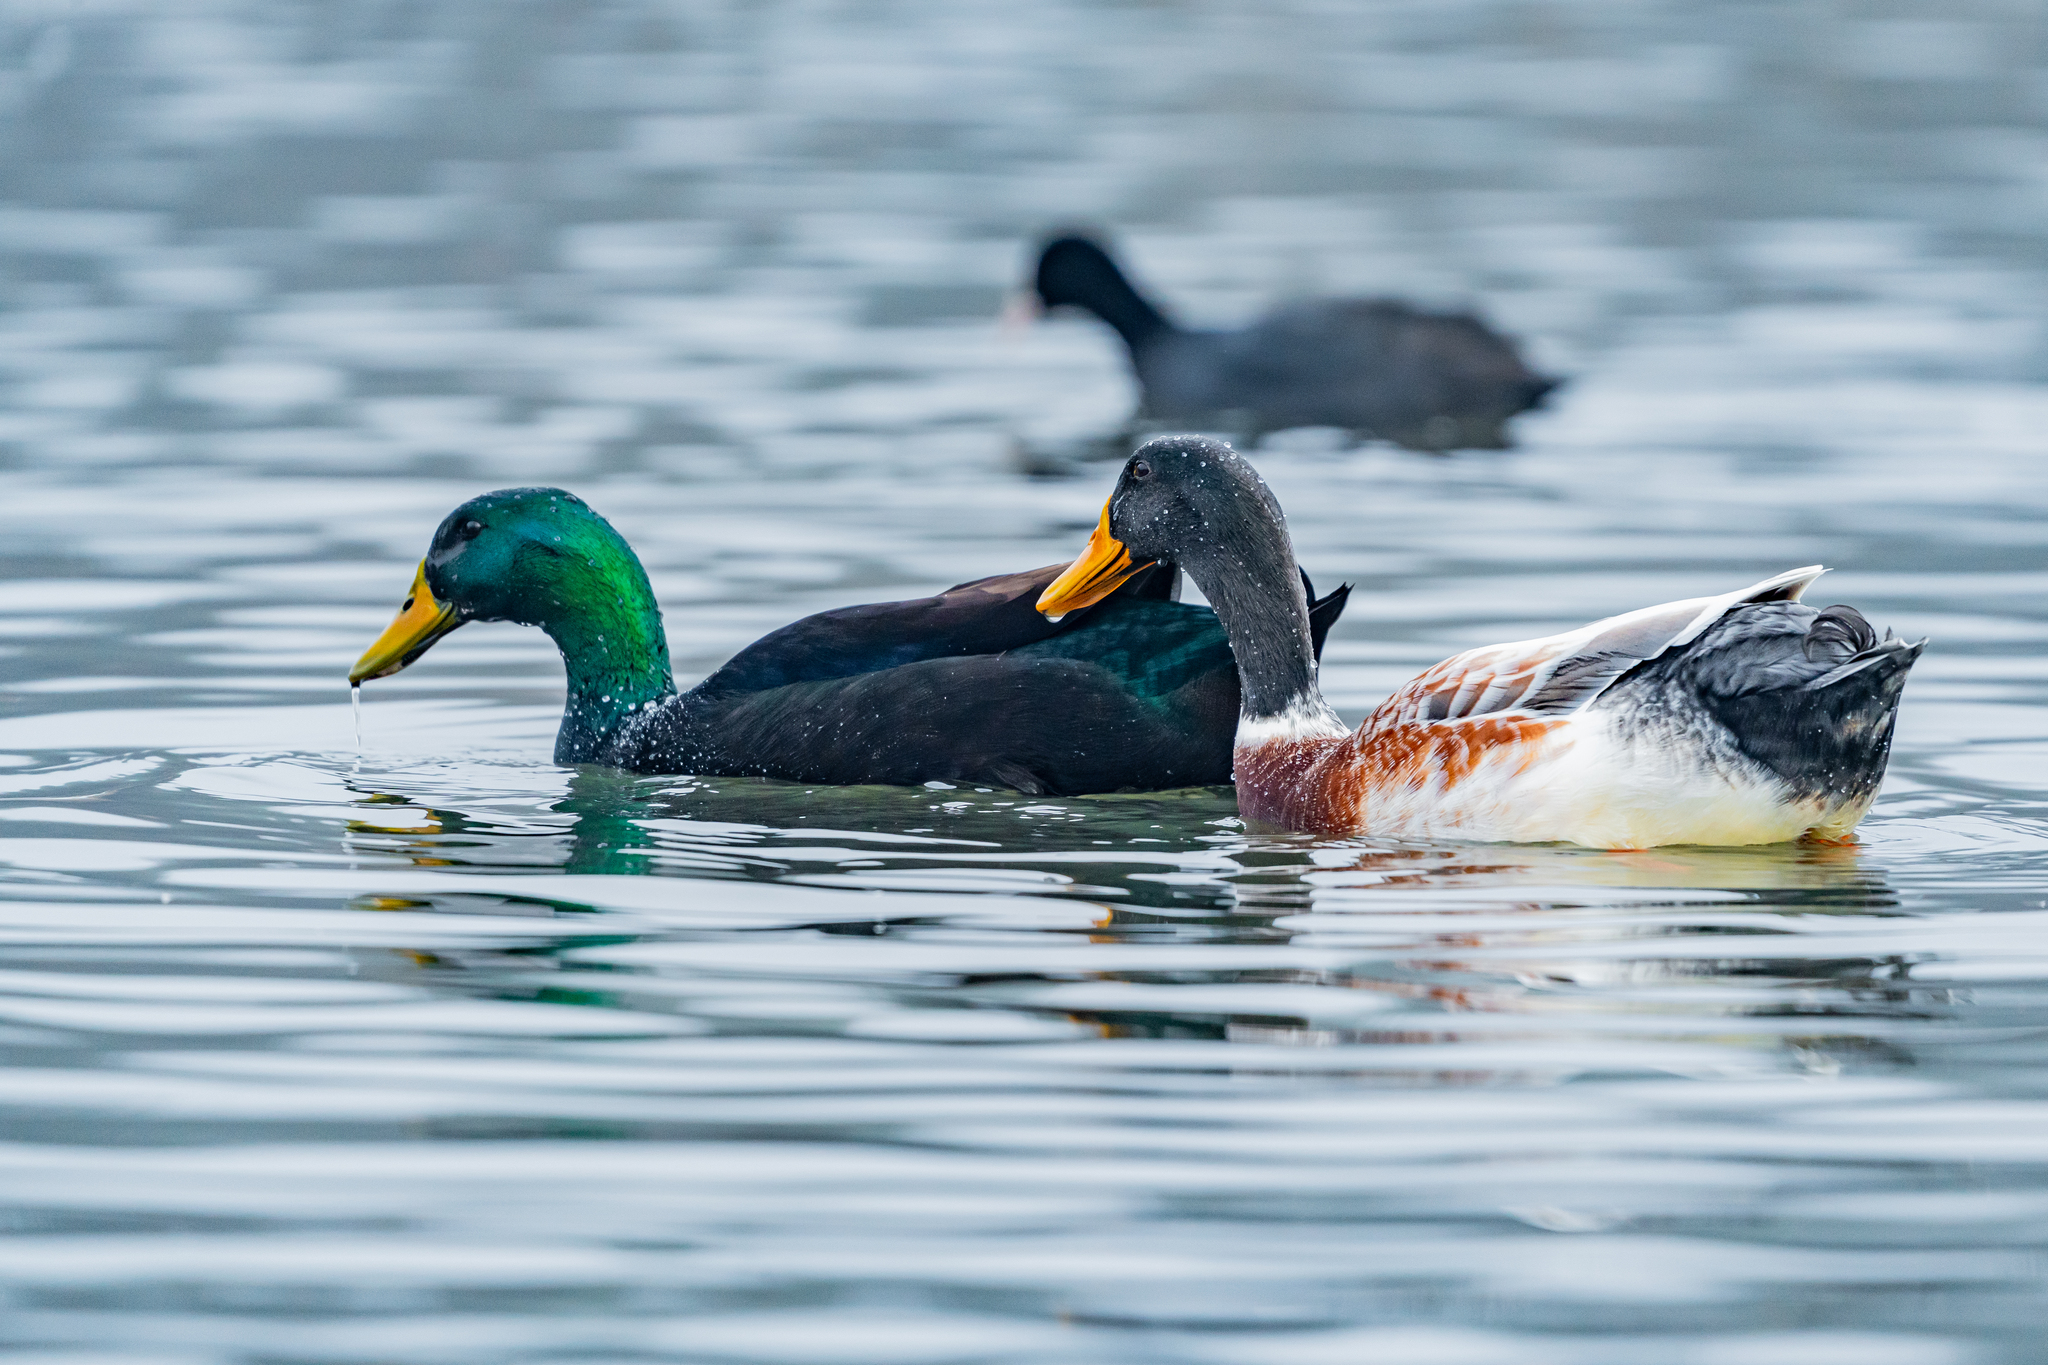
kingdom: Animalia
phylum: Chordata
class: Aves
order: Anseriformes
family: Anatidae
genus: Anas
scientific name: Anas platyrhynchos
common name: Mallard
